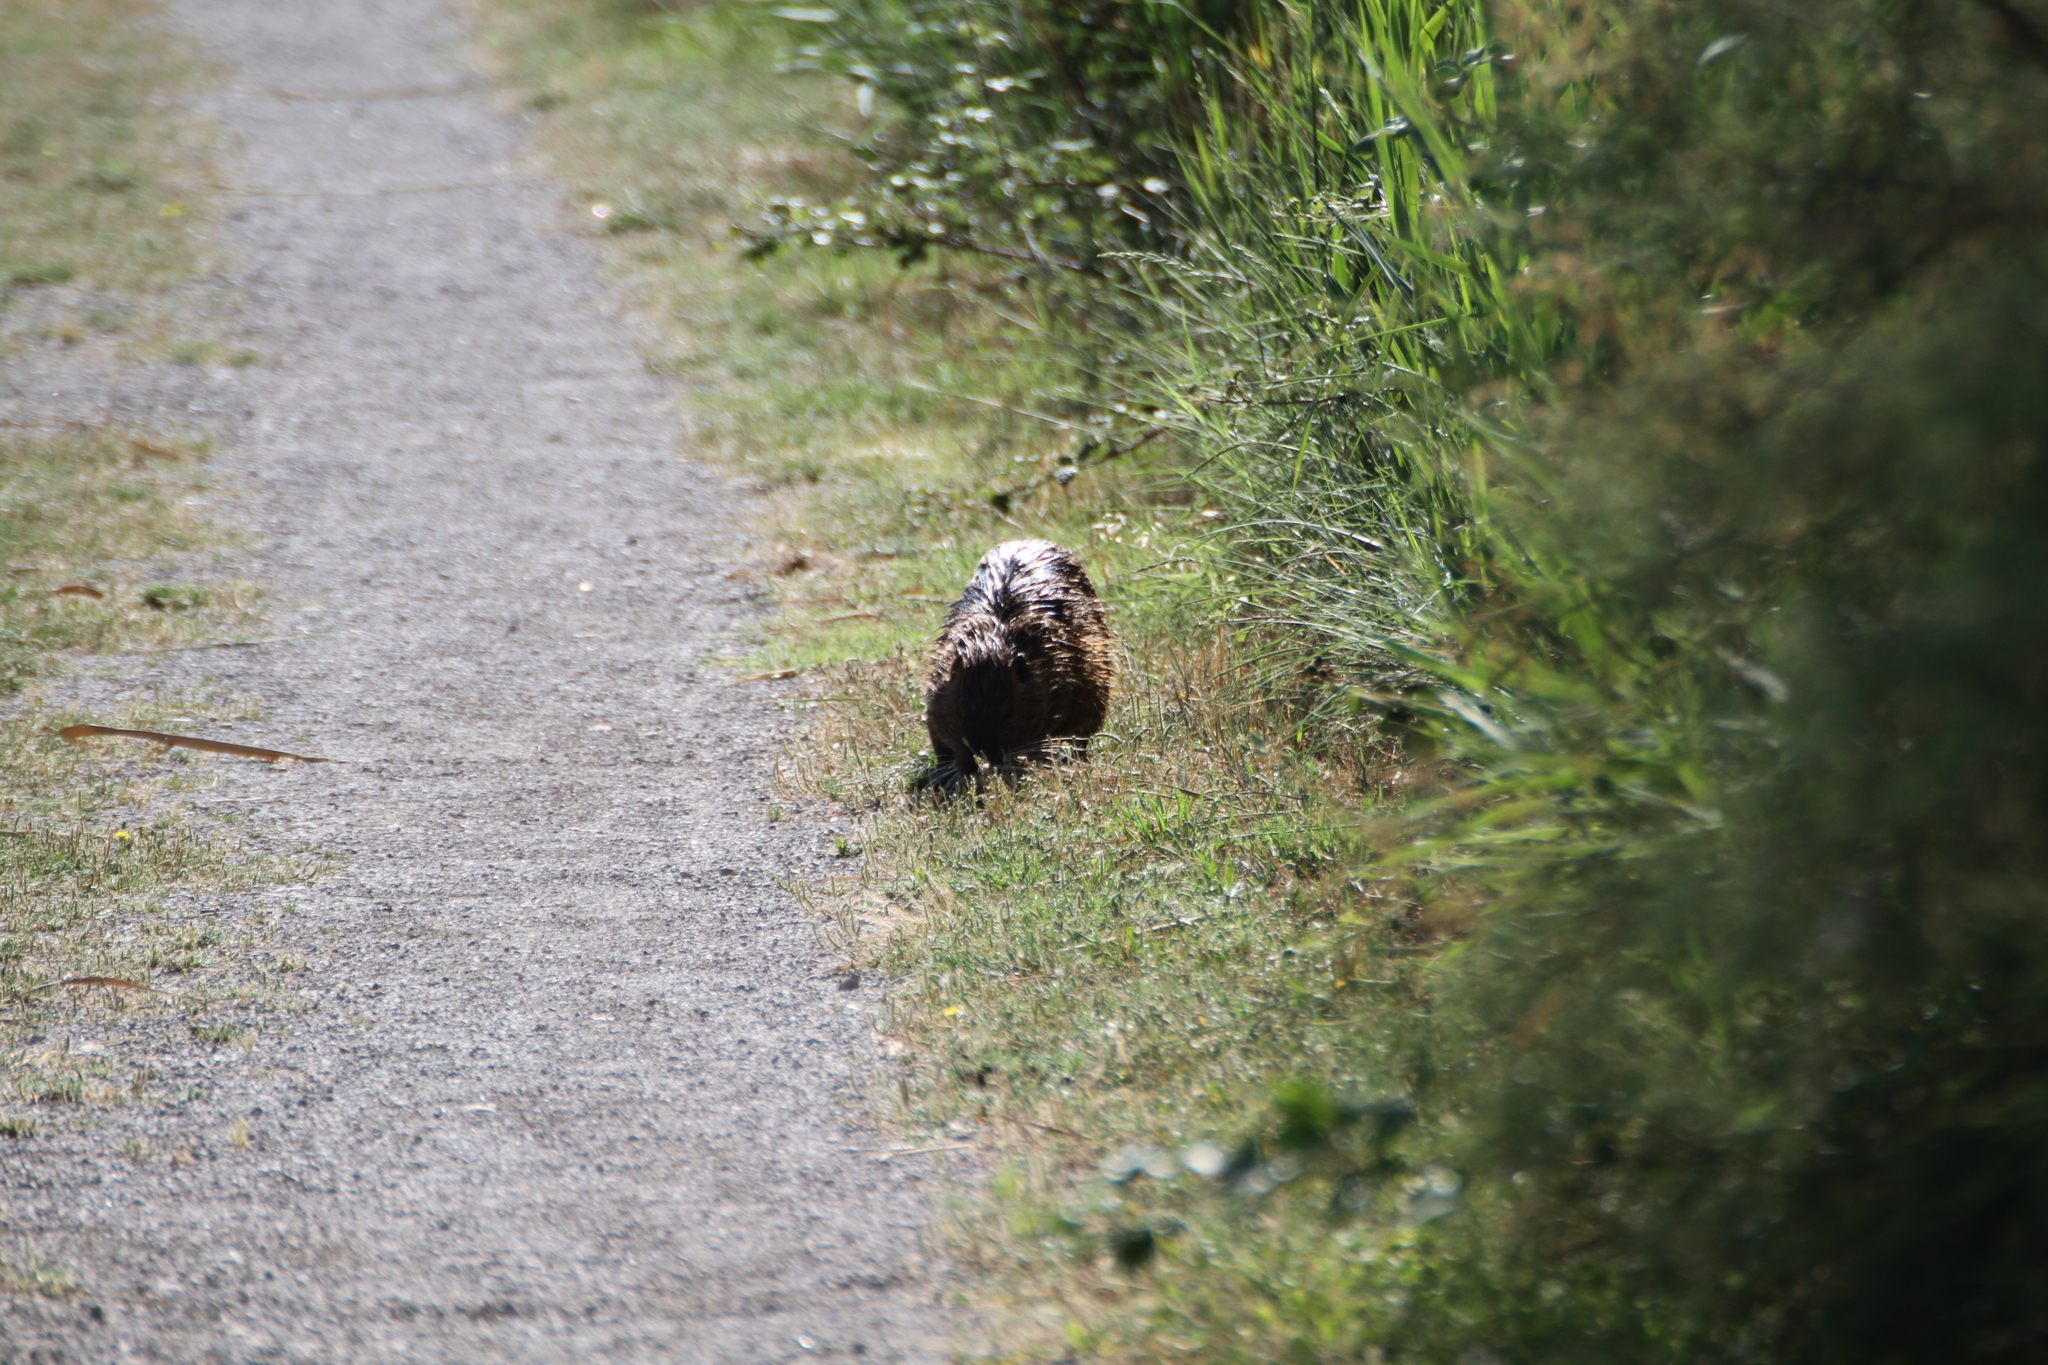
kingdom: Animalia
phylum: Chordata
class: Mammalia
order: Rodentia
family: Myocastoridae
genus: Myocastor
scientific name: Myocastor coypus
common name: Coypu
